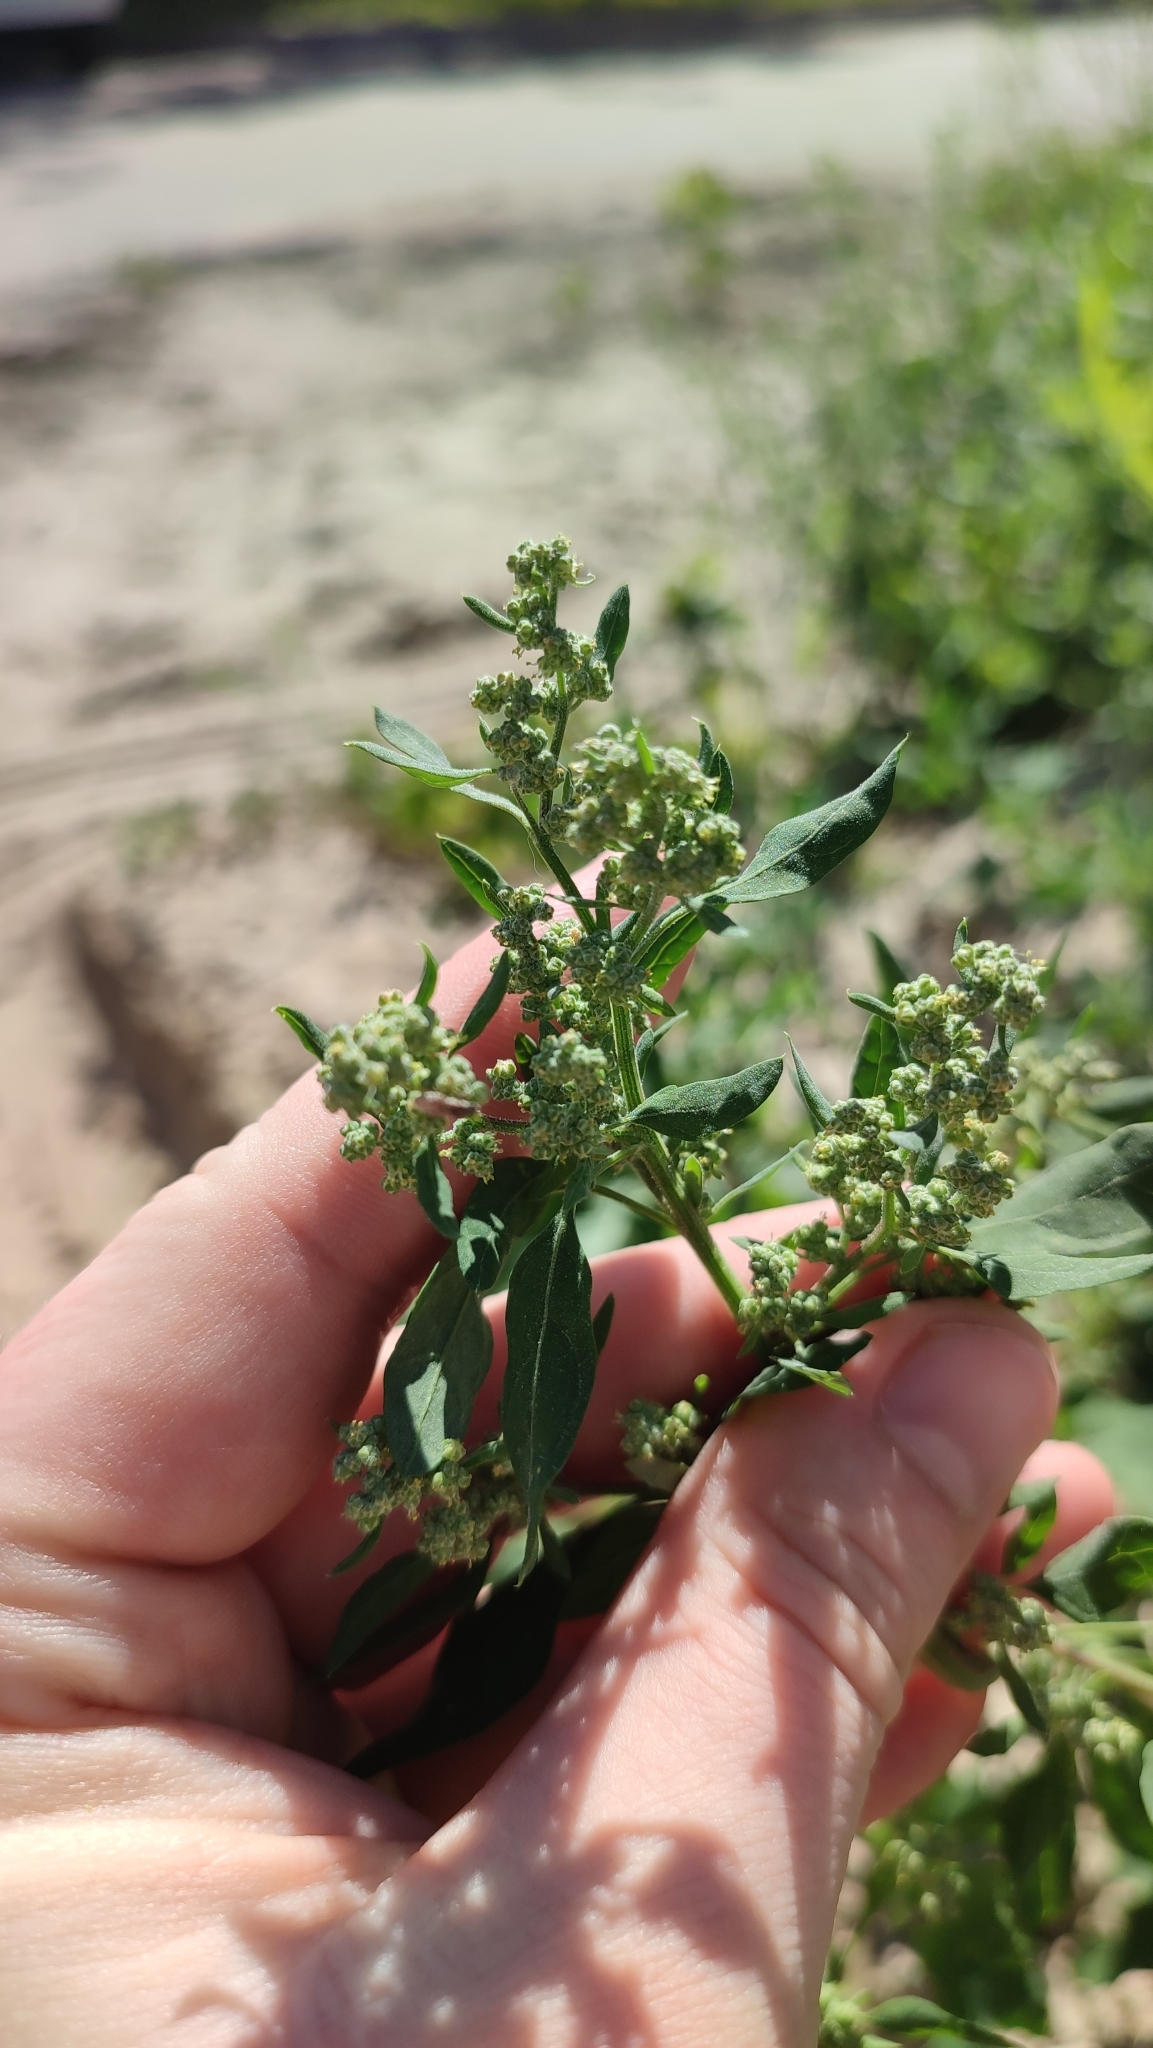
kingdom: Plantae
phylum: Tracheophyta
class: Magnoliopsida
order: Caryophyllales
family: Amaranthaceae
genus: Chenopodium
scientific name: Chenopodium album
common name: Fat-hen
